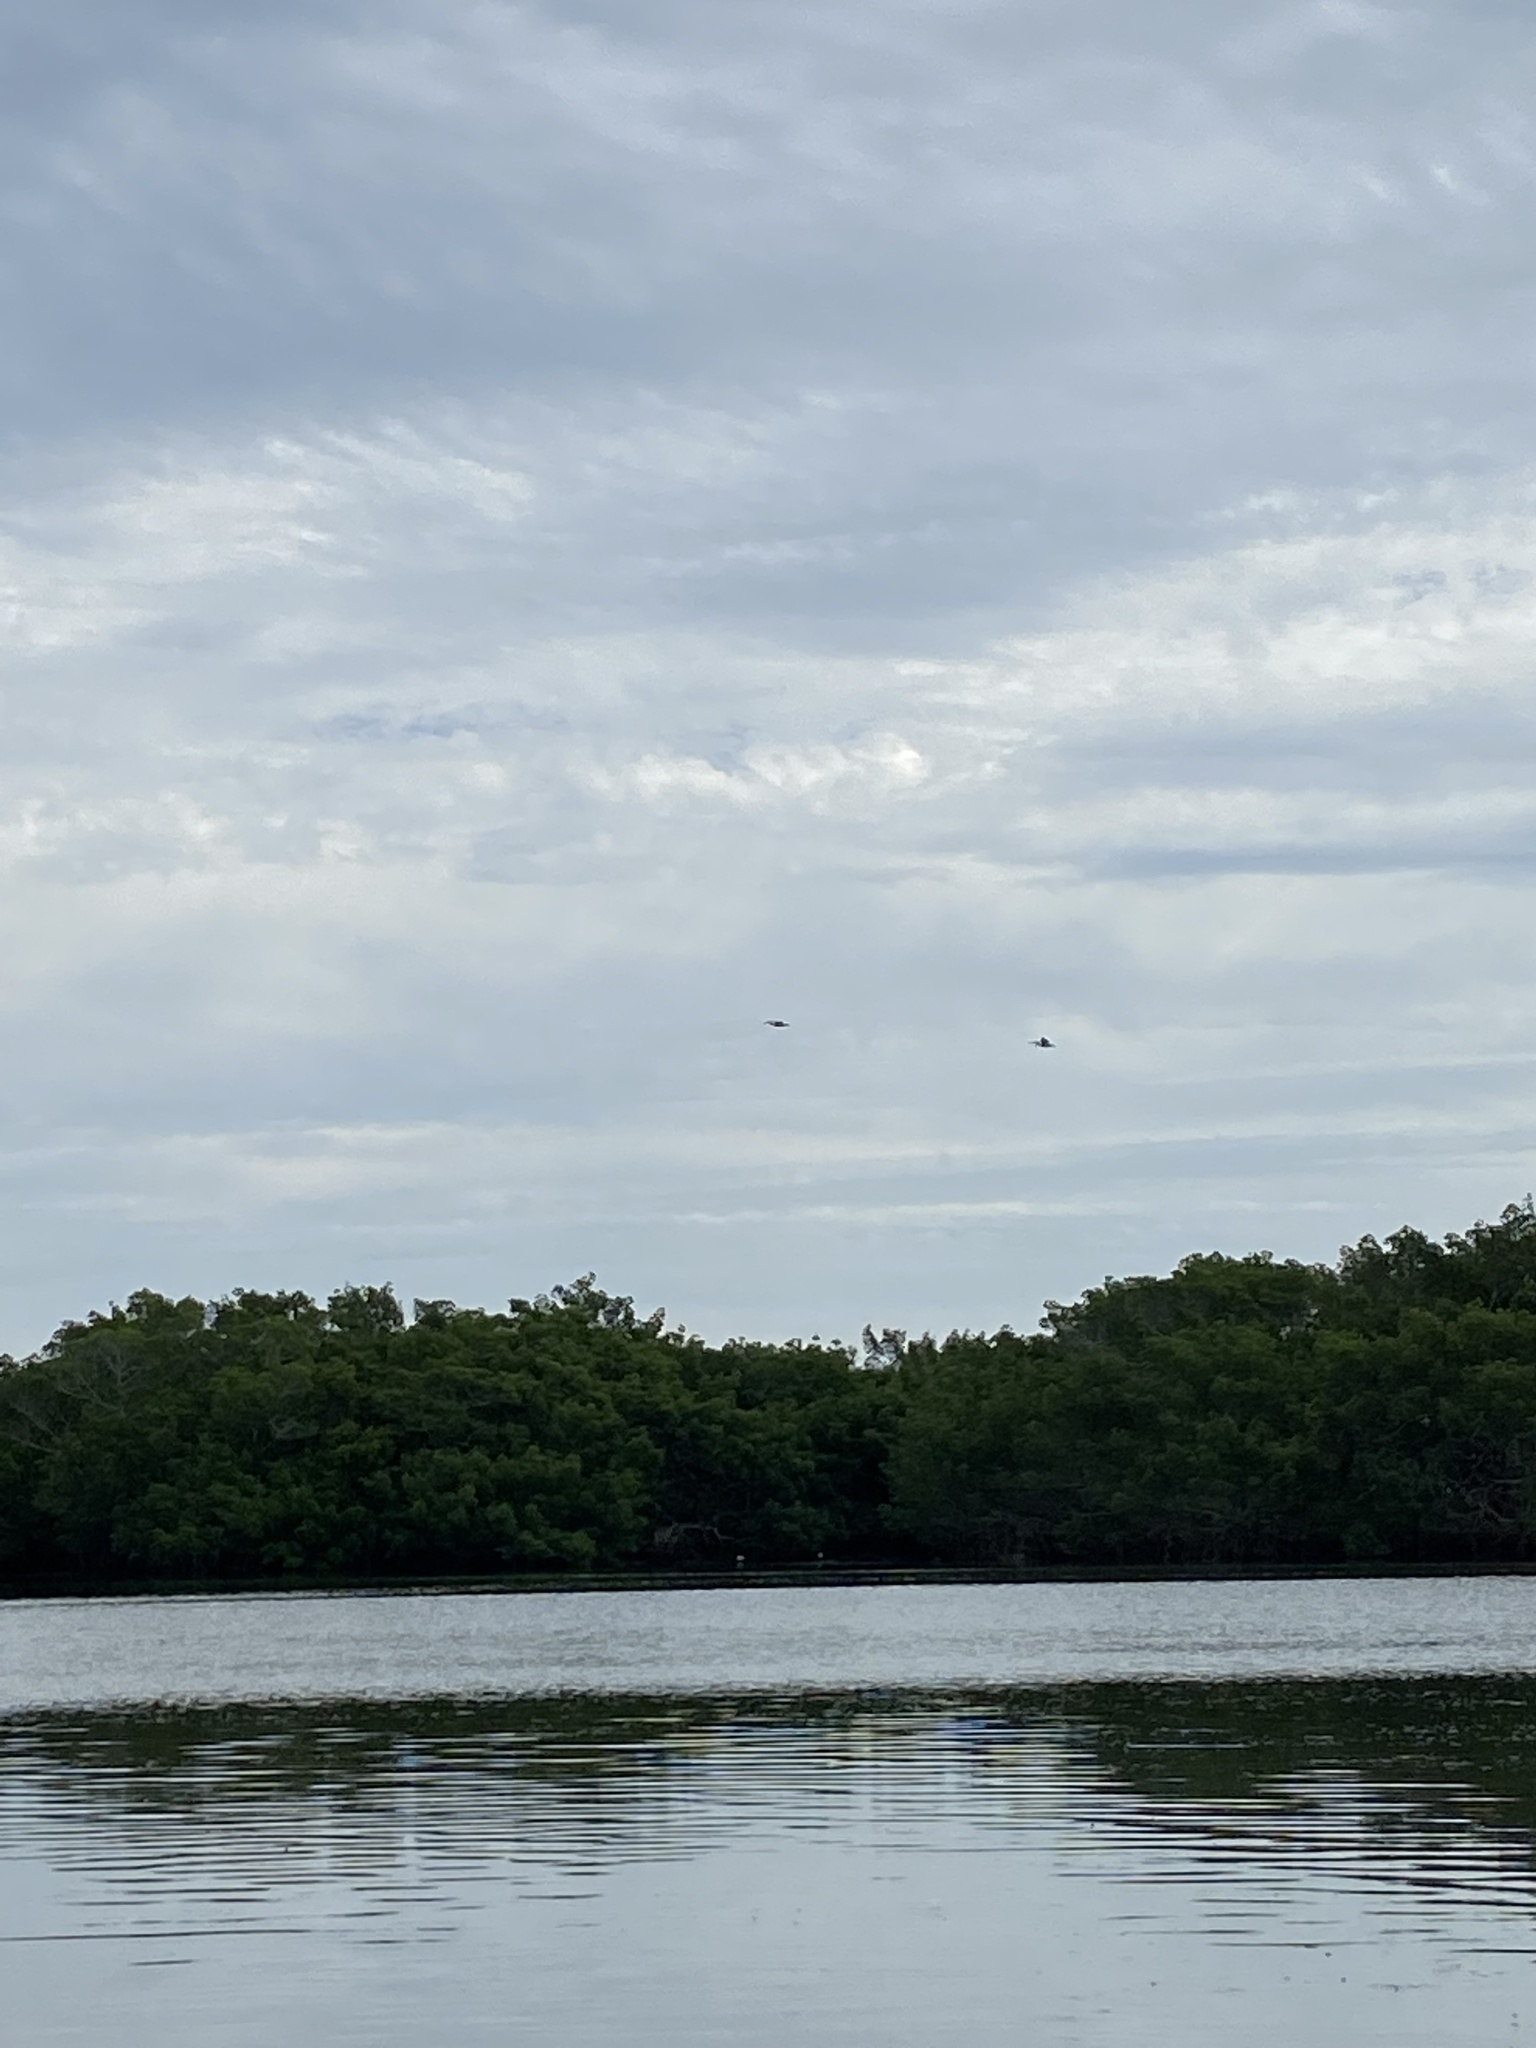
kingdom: Animalia
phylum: Chordata
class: Aves
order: Pelecaniformes
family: Pelecanidae
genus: Pelecanus
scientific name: Pelecanus erythrorhynchos
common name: American white pelican
